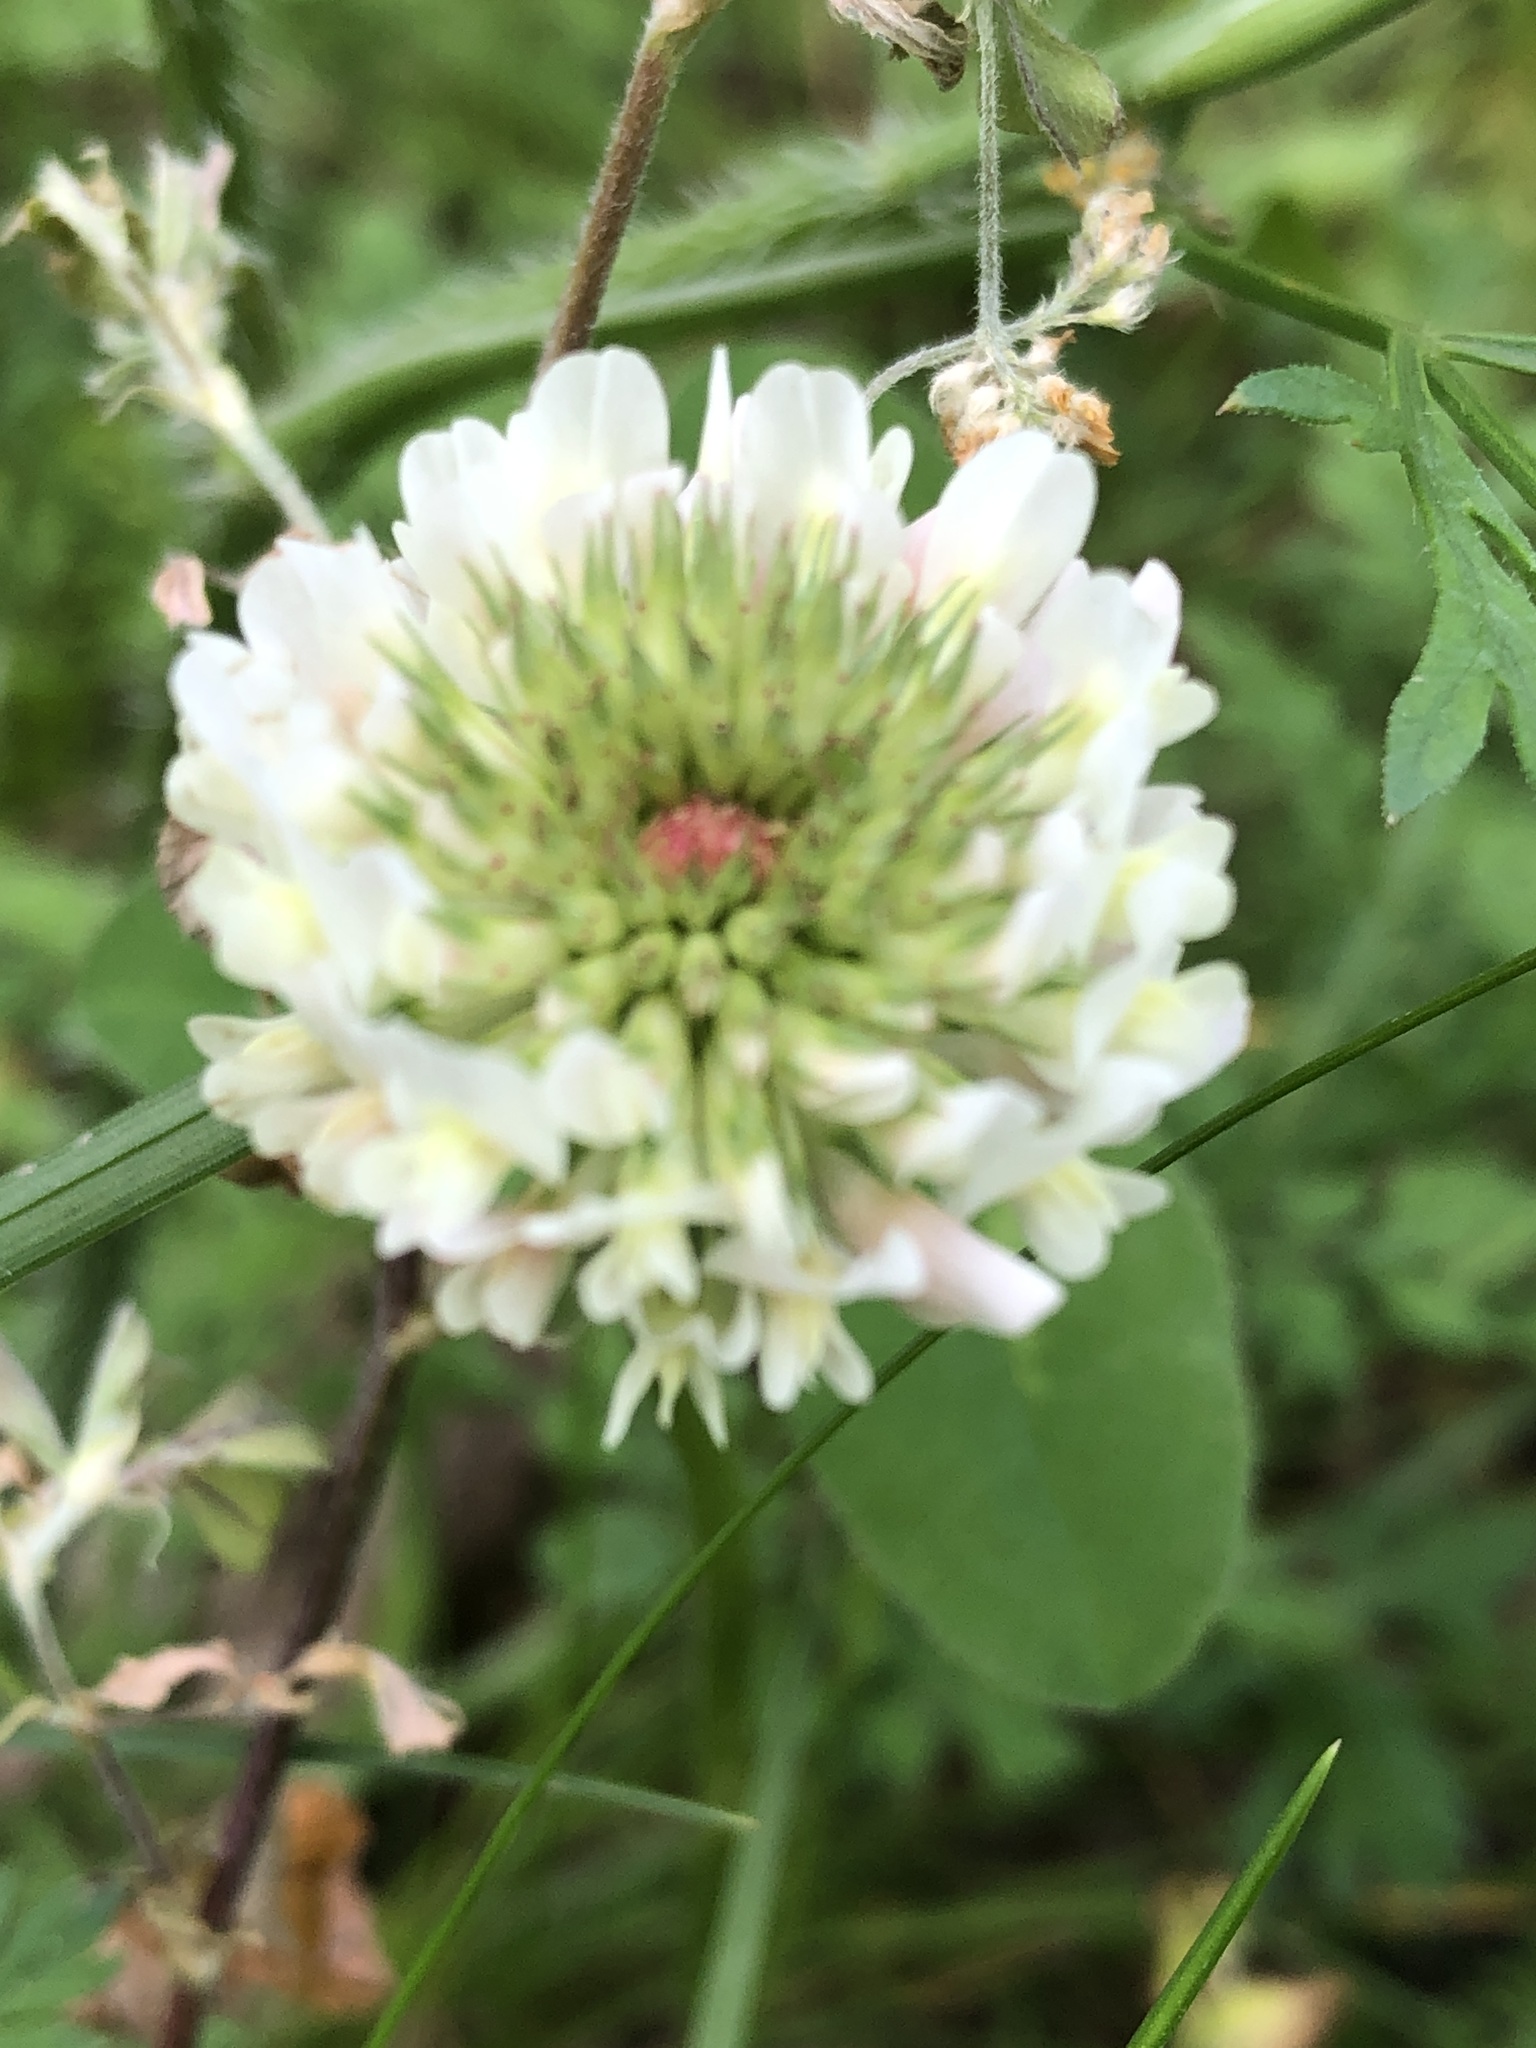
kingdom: Plantae
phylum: Tracheophyta
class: Magnoliopsida
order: Fabales
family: Fabaceae
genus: Trifolium
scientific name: Trifolium repens
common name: White clover
